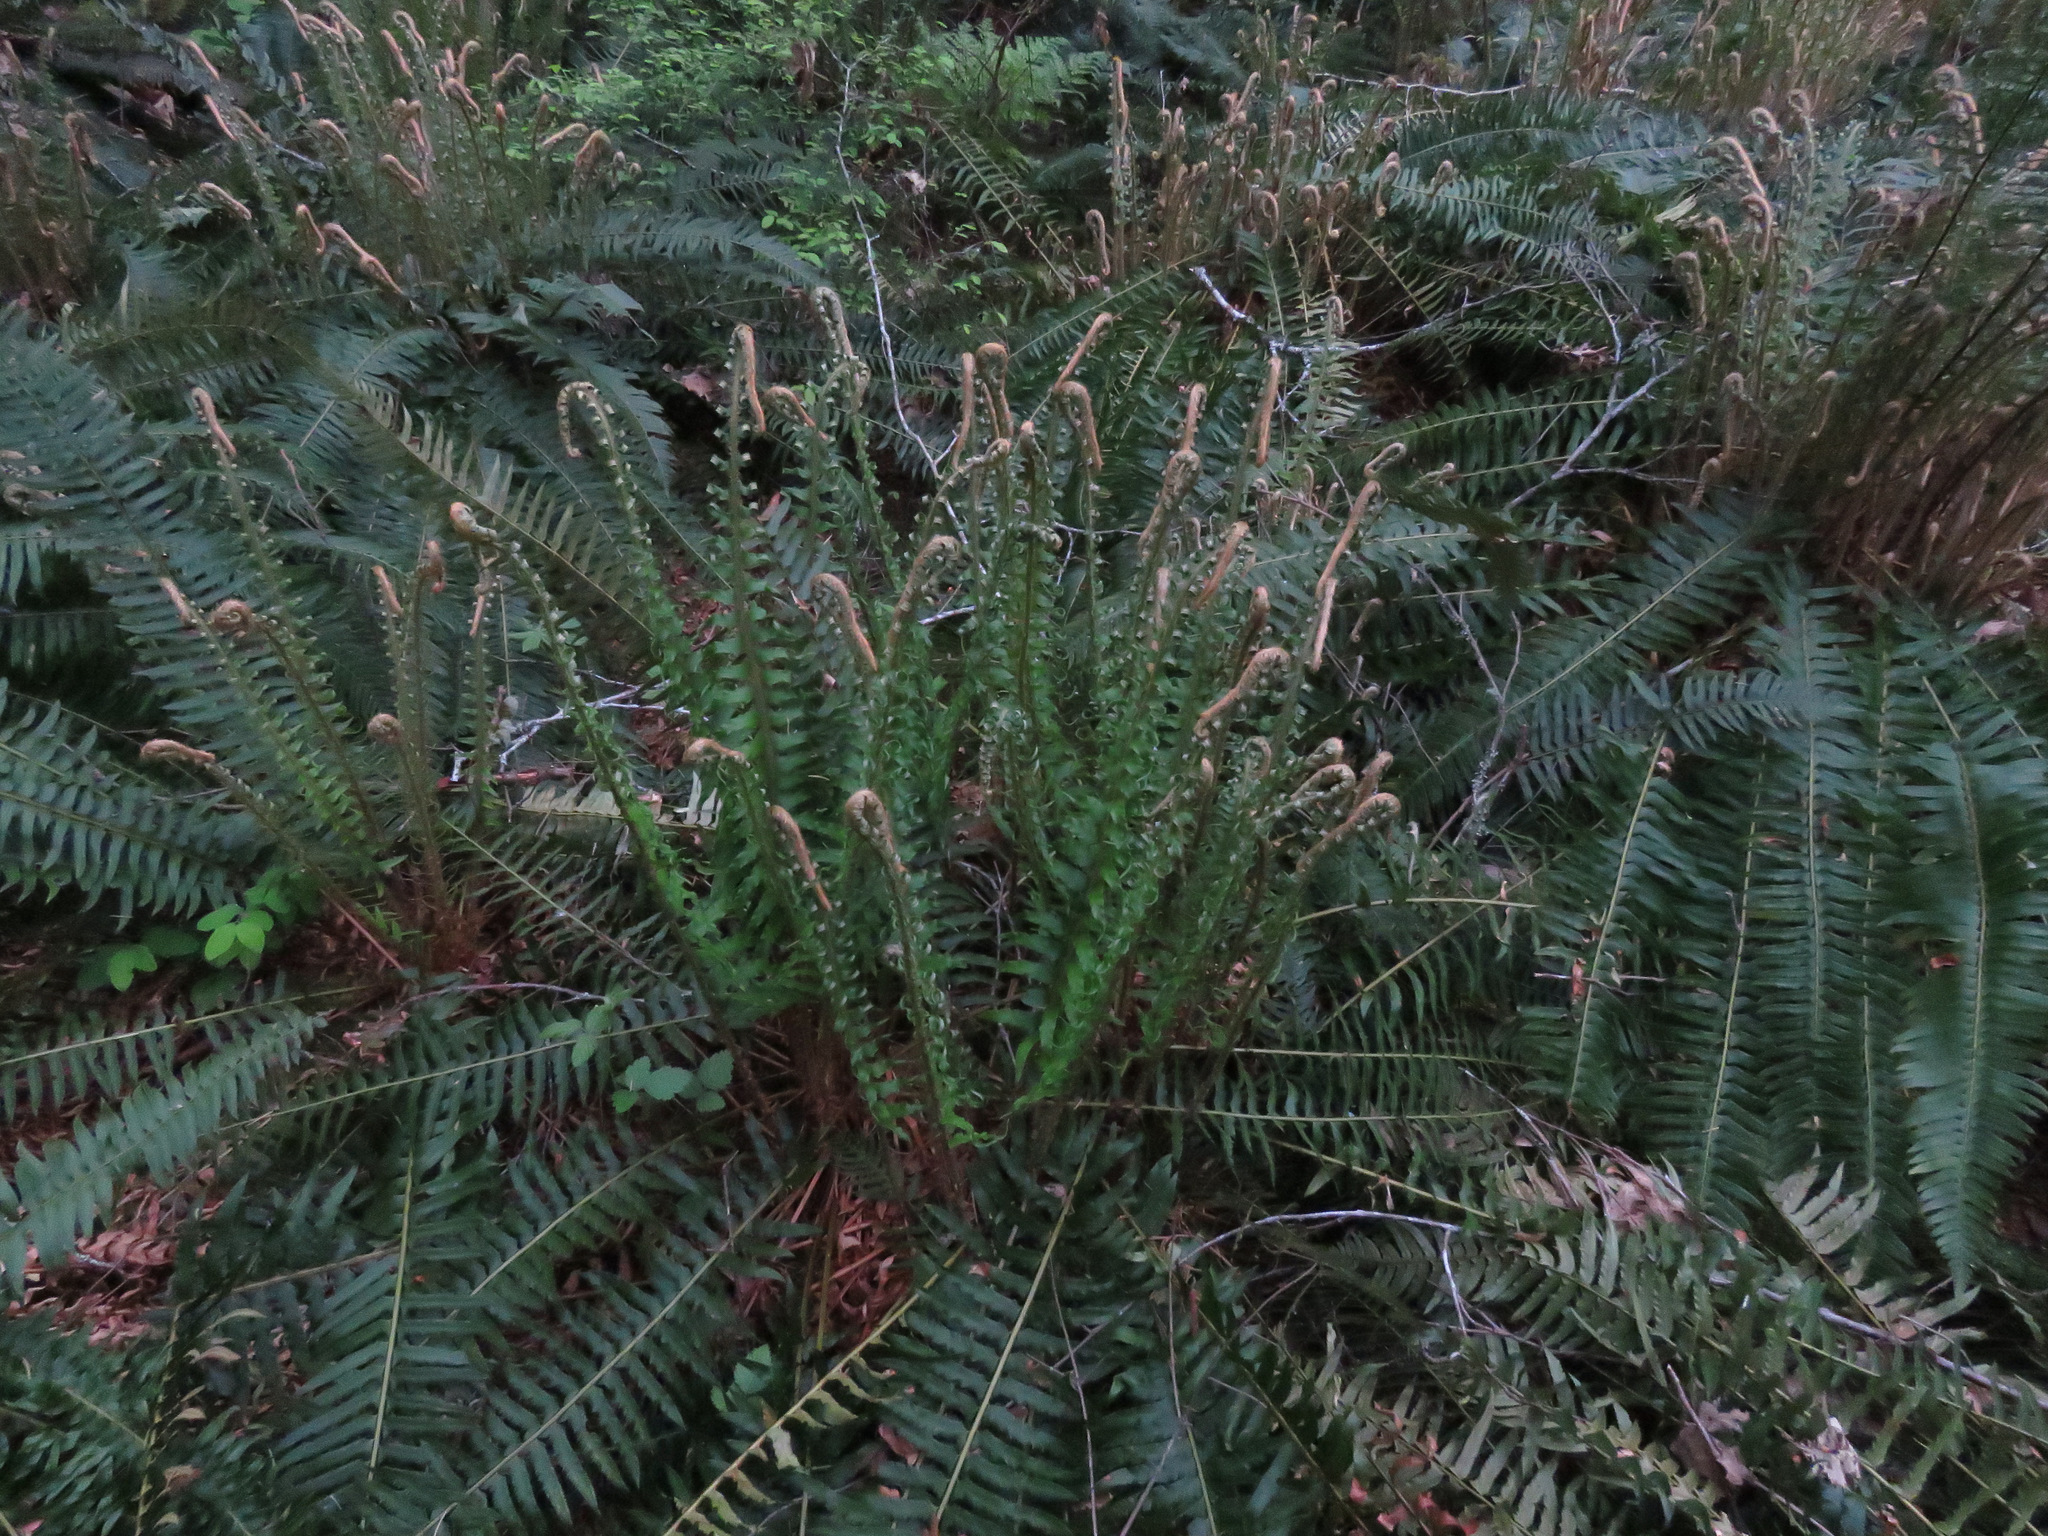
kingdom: Plantae
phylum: Tracheophyta
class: Polypodiopsida
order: Polypodiales
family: Dryopteridaceae
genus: Polystichum
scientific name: Polystichum munitum
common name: Western sword-fern
